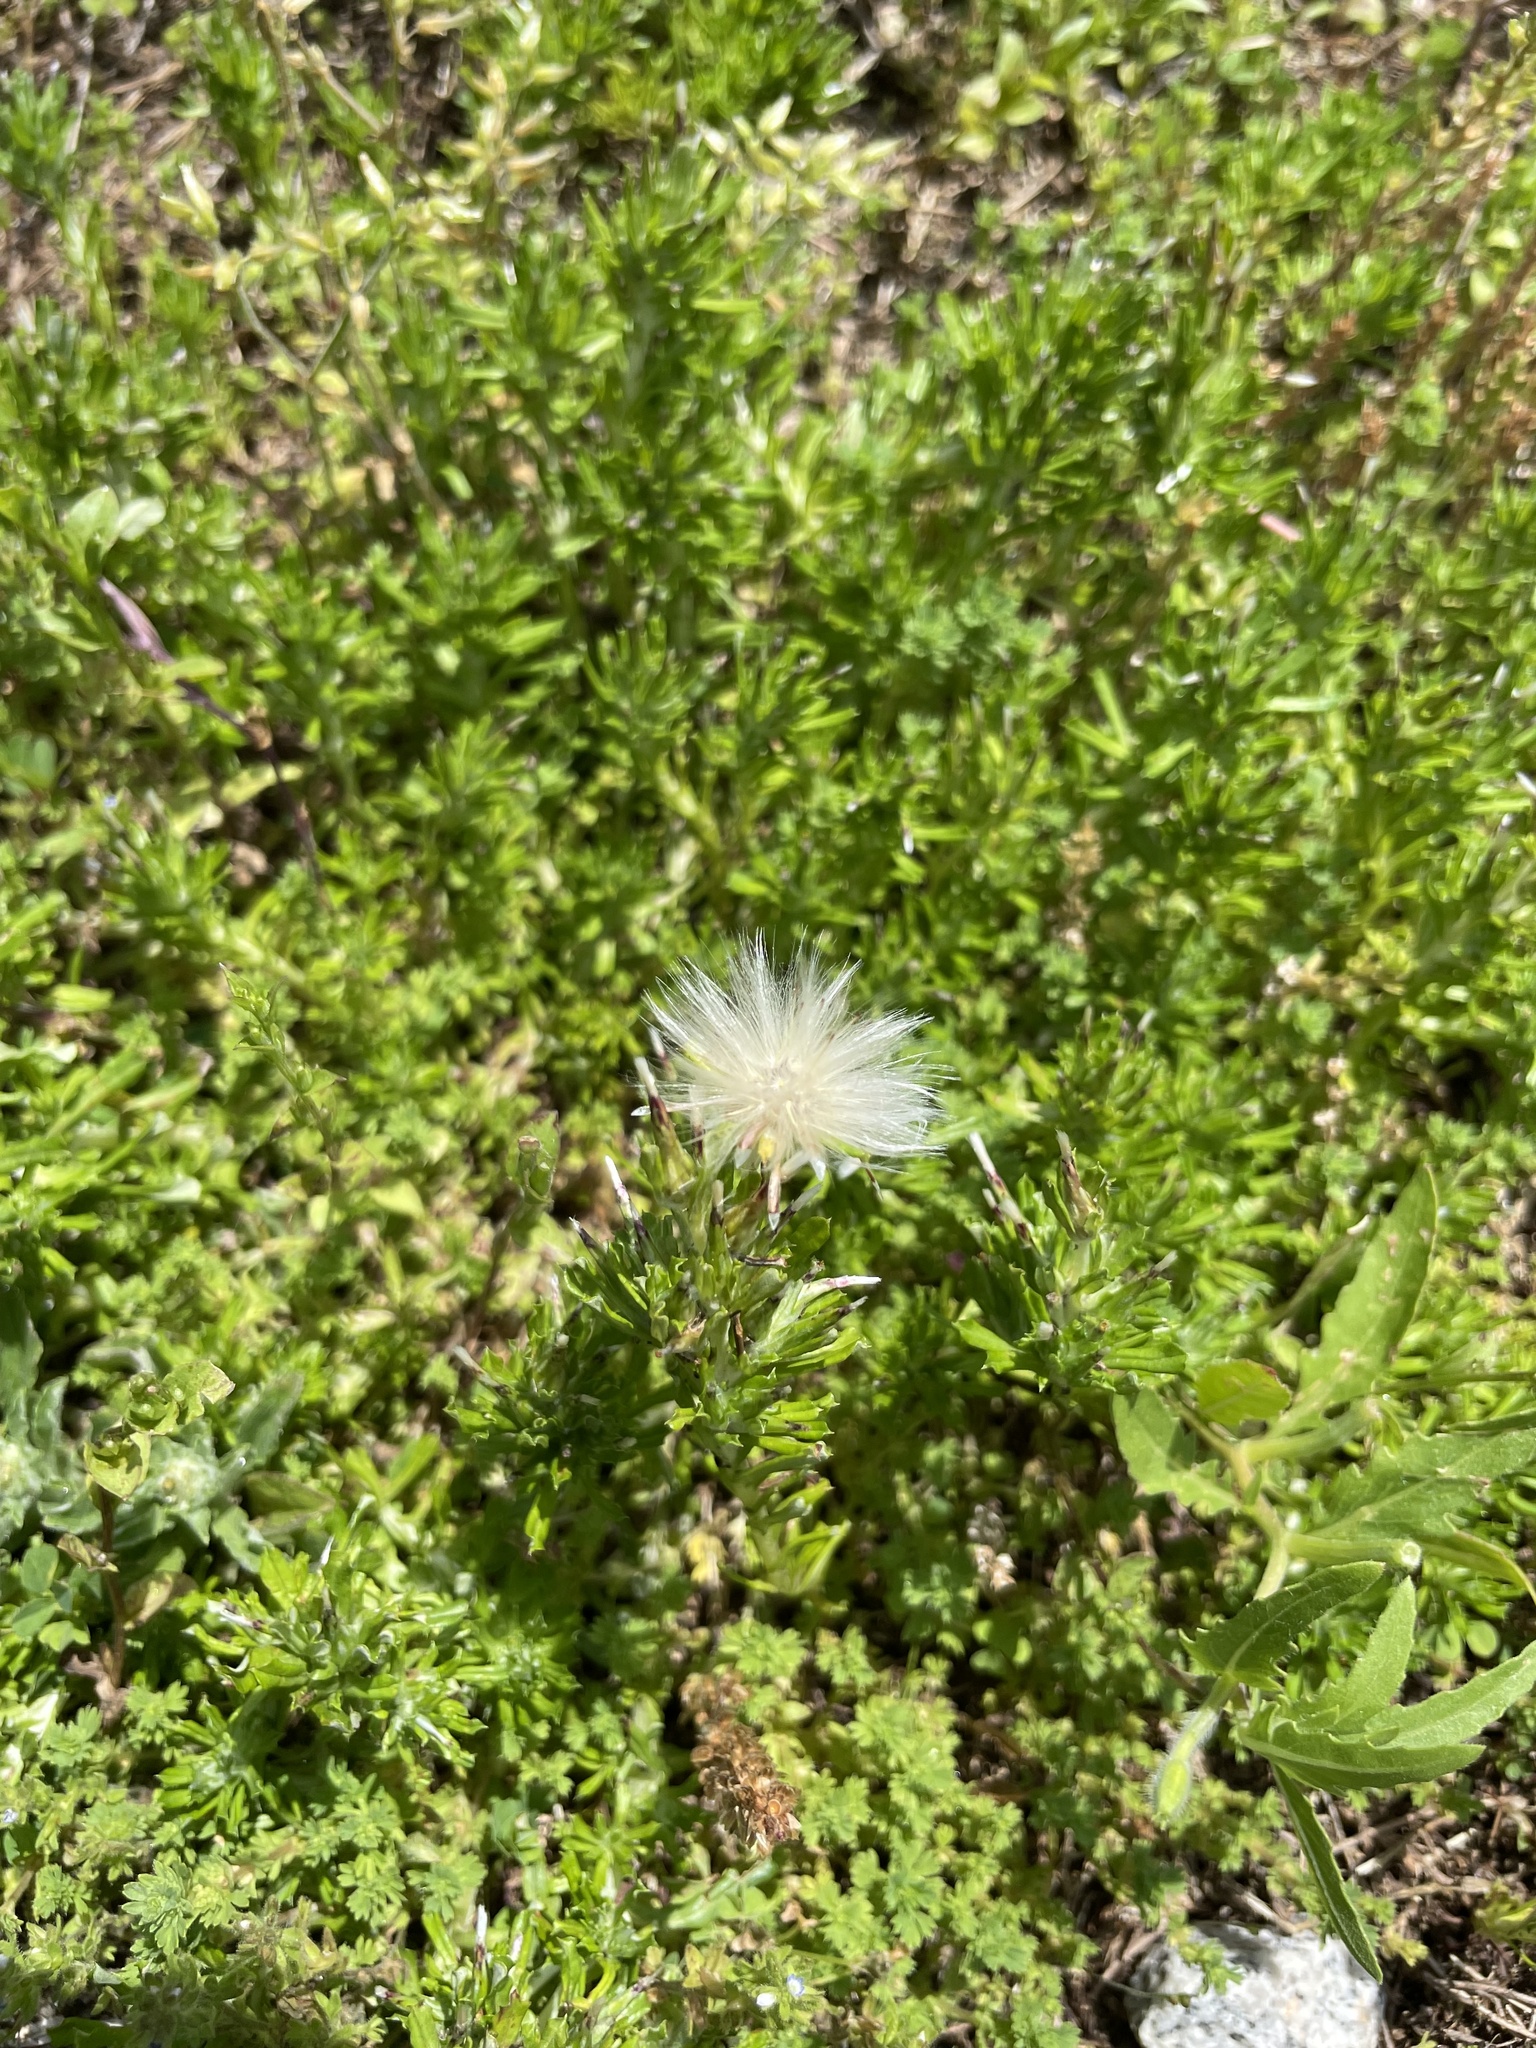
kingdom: Plantae
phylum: Tracheophyta
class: Magnoliopsida
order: Asterales
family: Asteraceae
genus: Facelis
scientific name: Facelis retusa
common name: Annual trampweed
